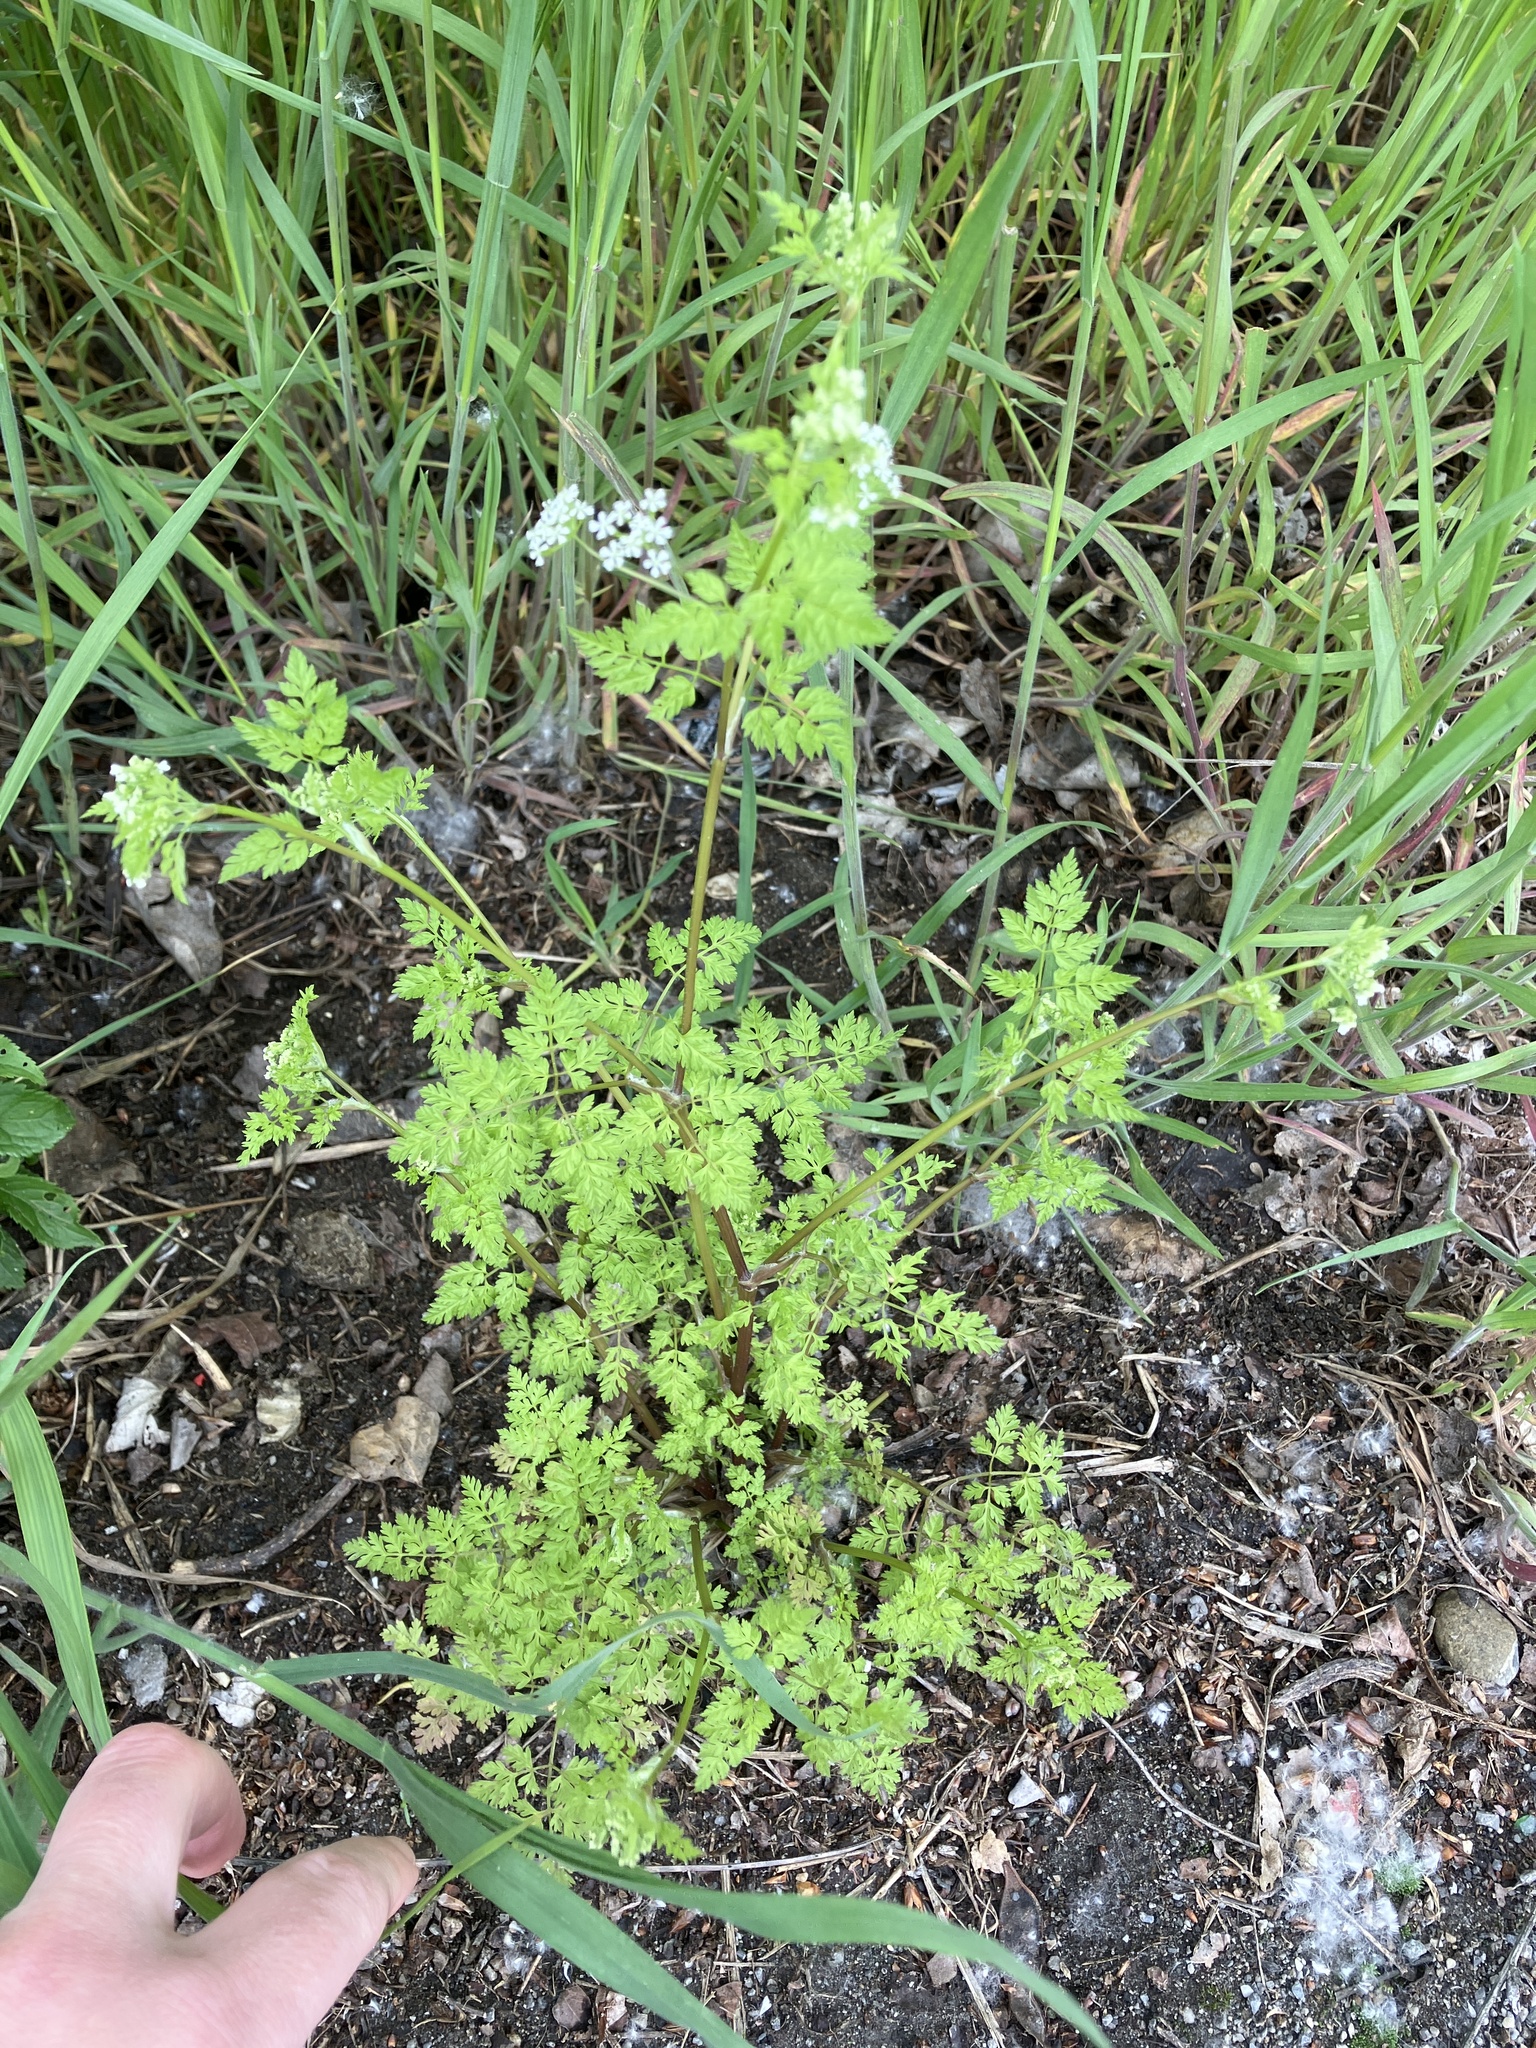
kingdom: Plantae
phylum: Tracheophyta
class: Magnoliopsida
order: Apiales
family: Apiaceae
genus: Anthriscus
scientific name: Anthriscus cerefolium
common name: Garden chervil
